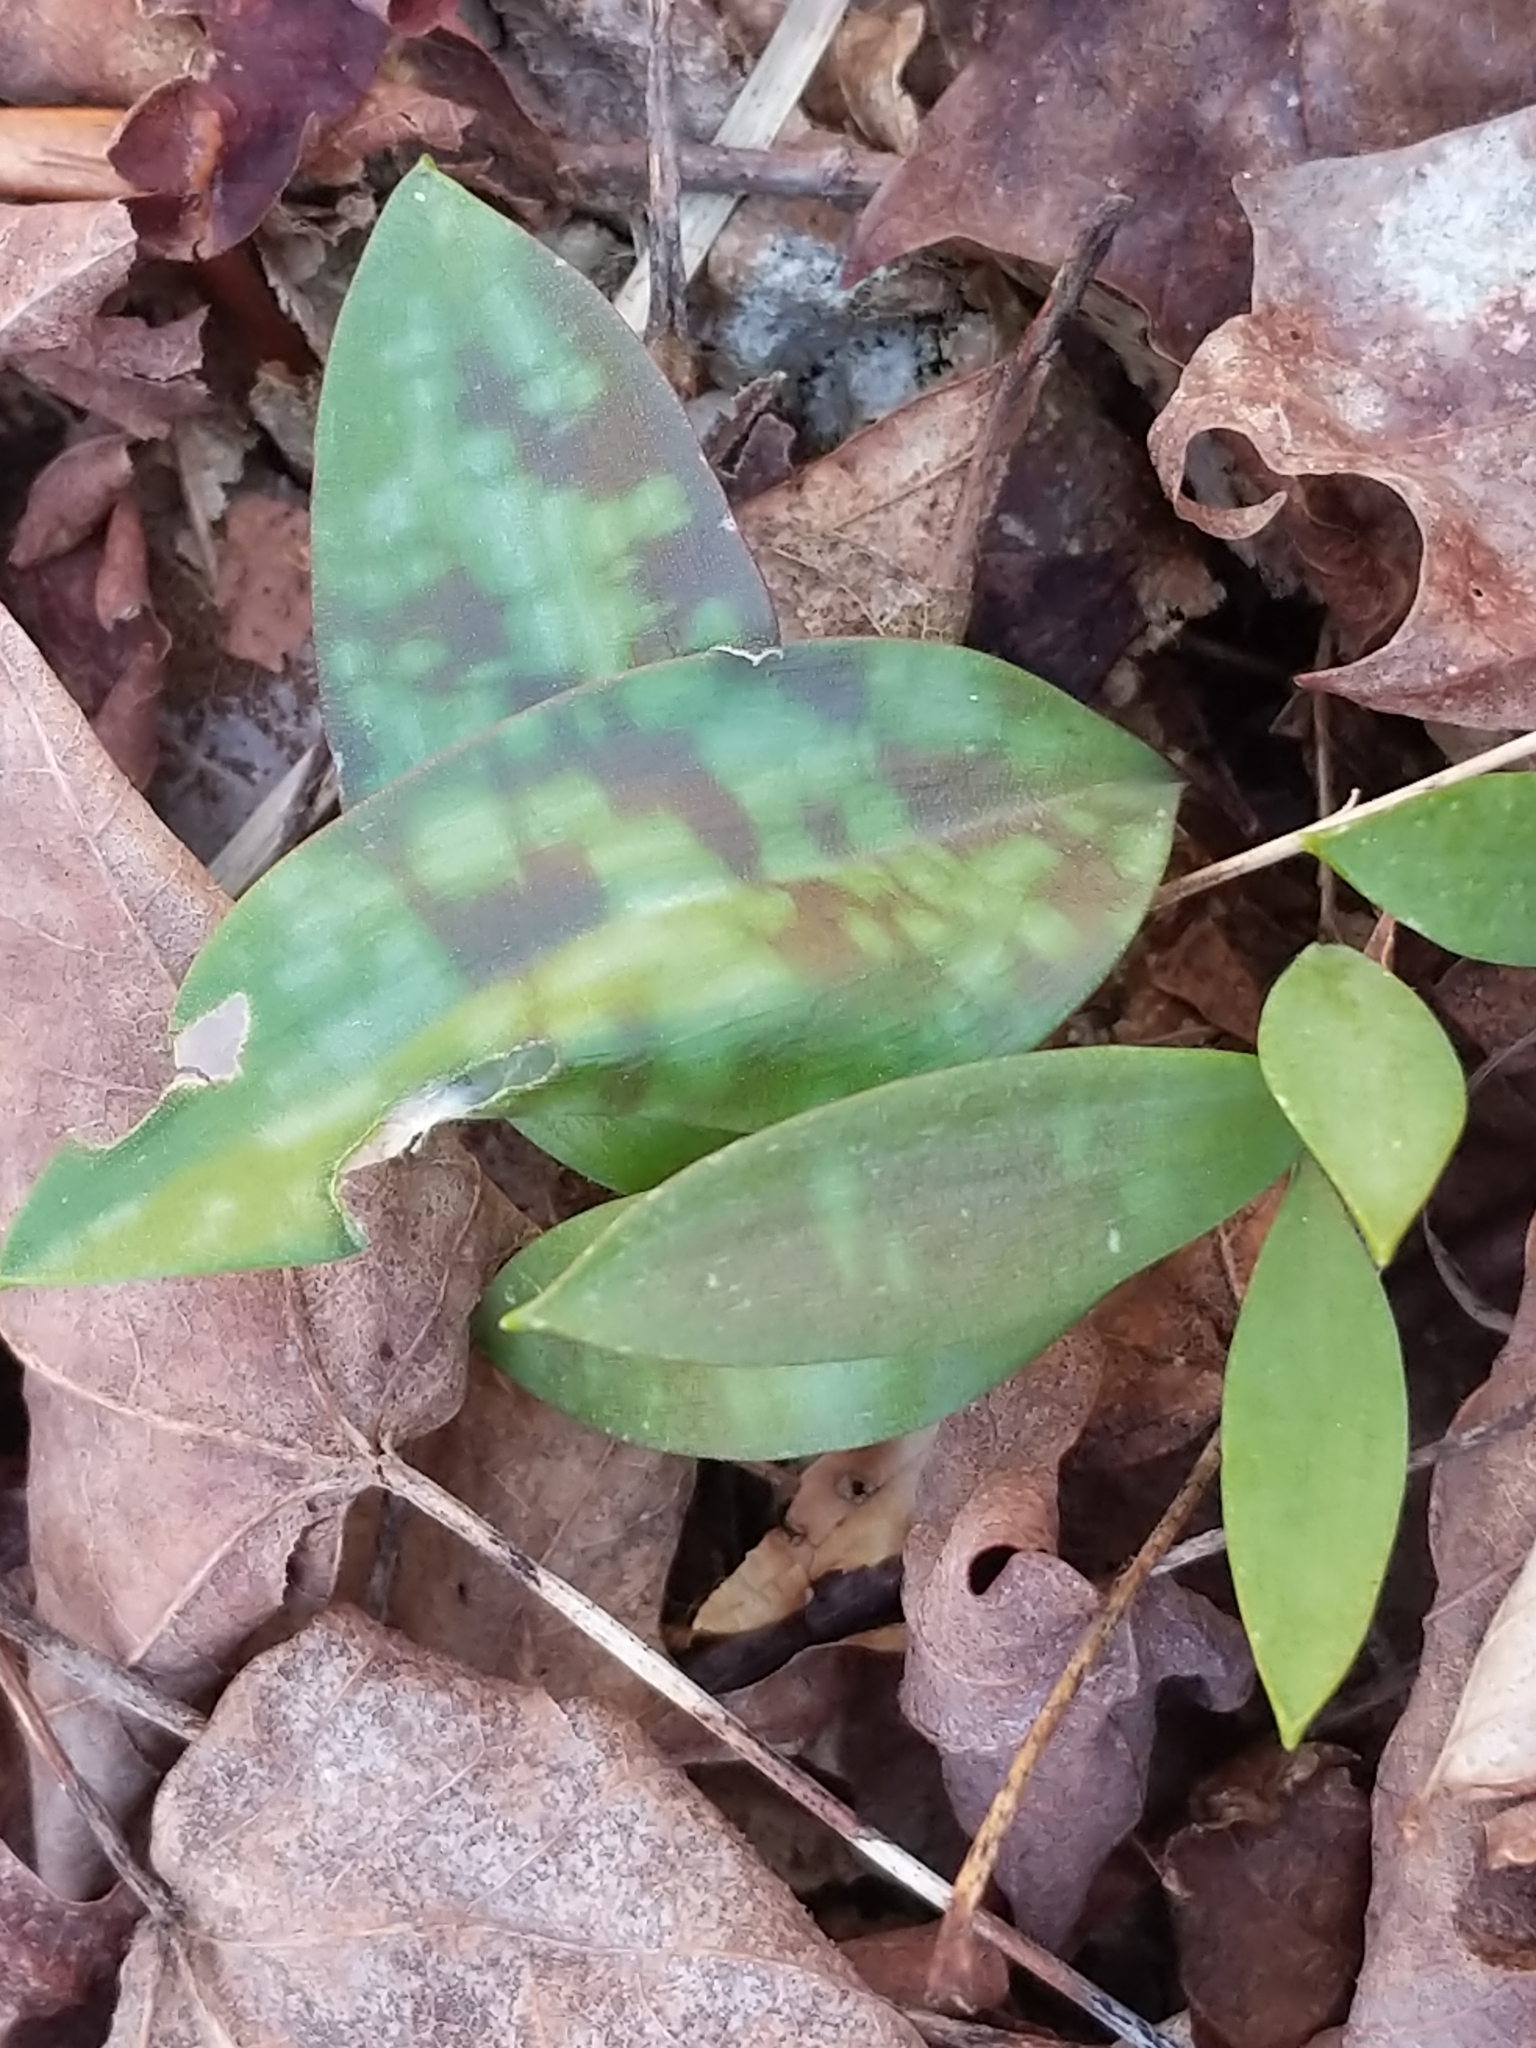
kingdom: Plantae
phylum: Tracheophyta
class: Liliopsida
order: Liliales
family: Liliaceae
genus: Erythronium
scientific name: Erythronium
